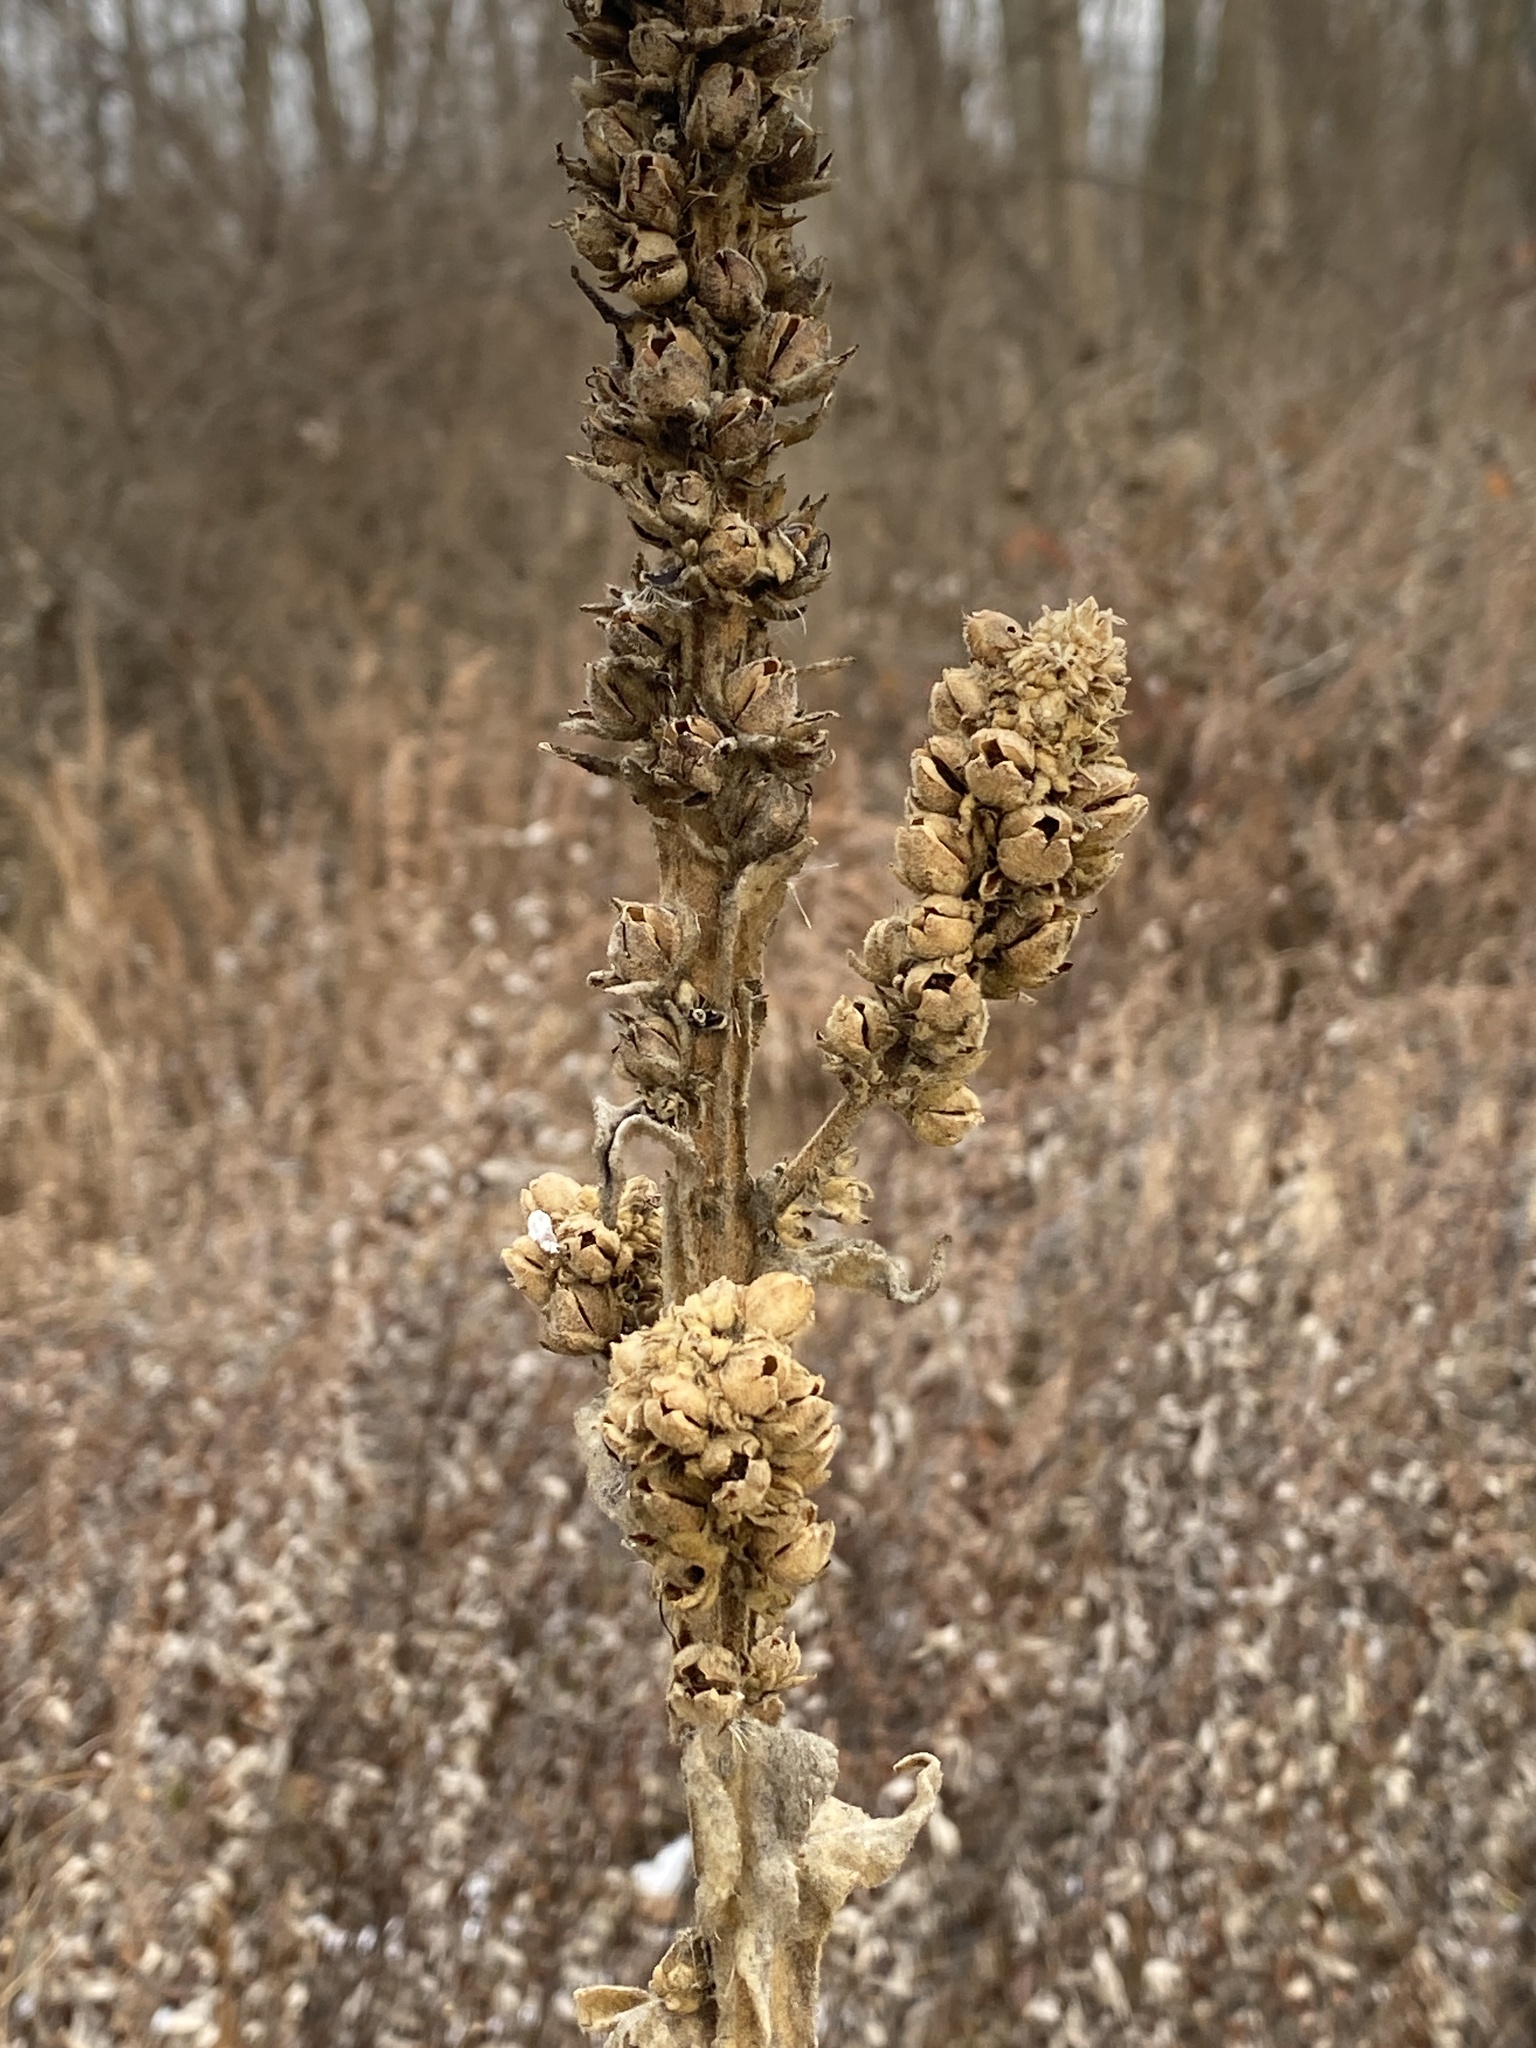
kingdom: Plantae
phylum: Tracheophyta
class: Magnoliopsida
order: Lamiales
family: Scrophulariaceae
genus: Verbascum
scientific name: Verbascum thapsus
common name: Common mullein
